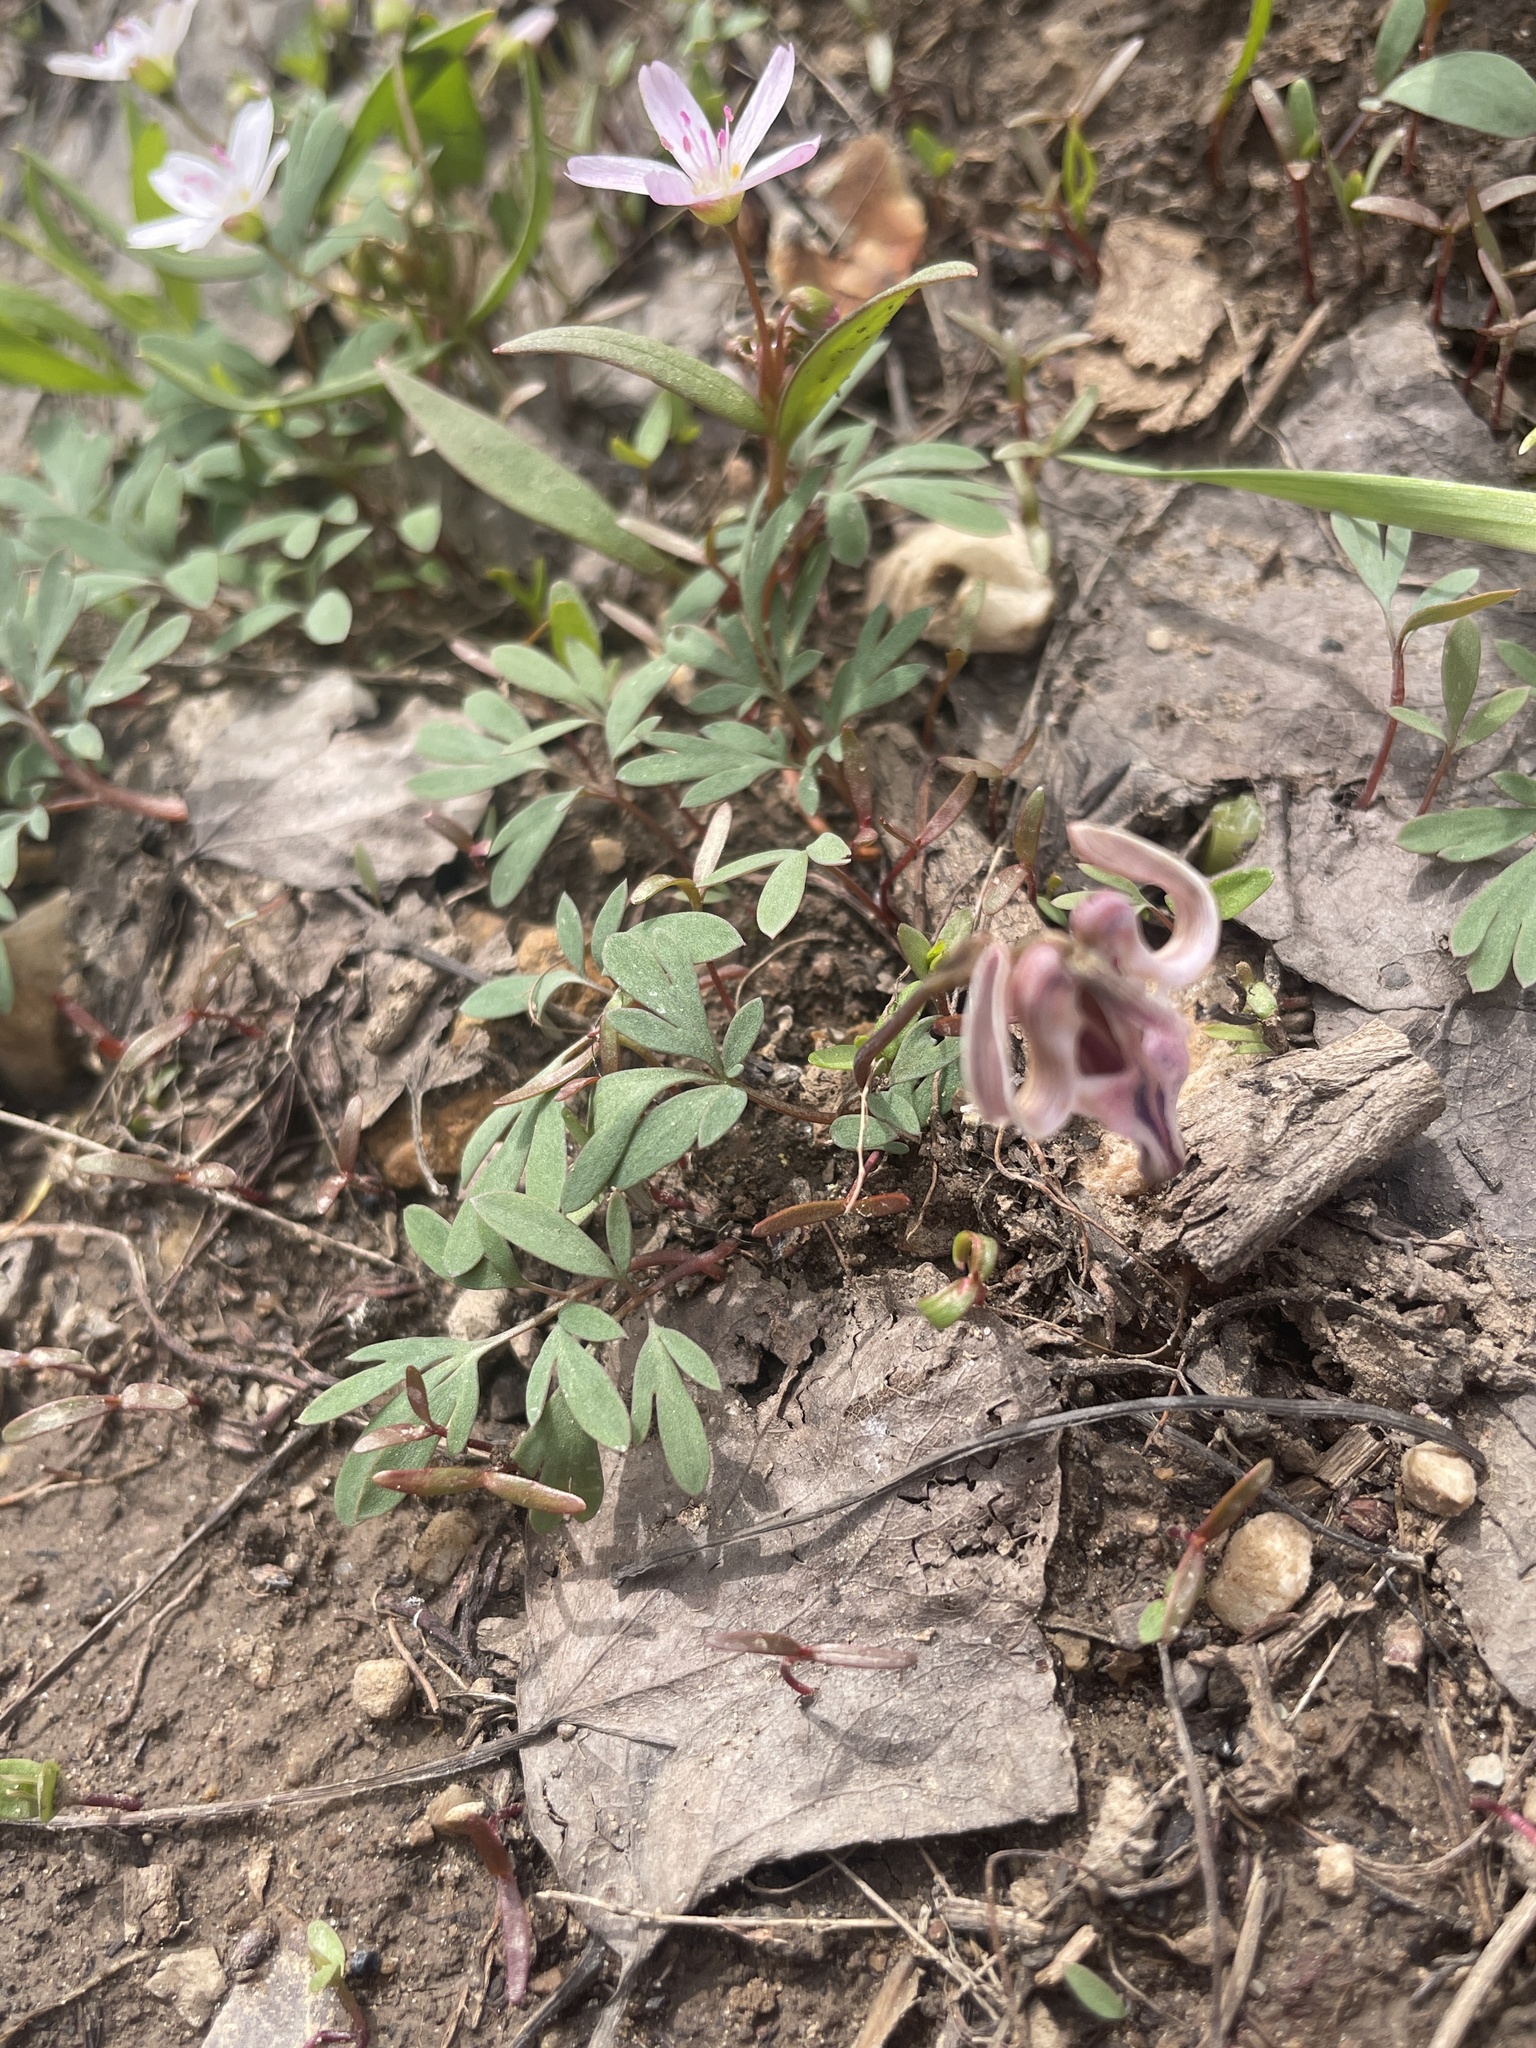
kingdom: Plantae
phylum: Tracheophyta
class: Magnoliopsida
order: Ranunculales
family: Papaveraceae
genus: Dicentra
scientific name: Dicentra uniflora
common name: Steer's-head
